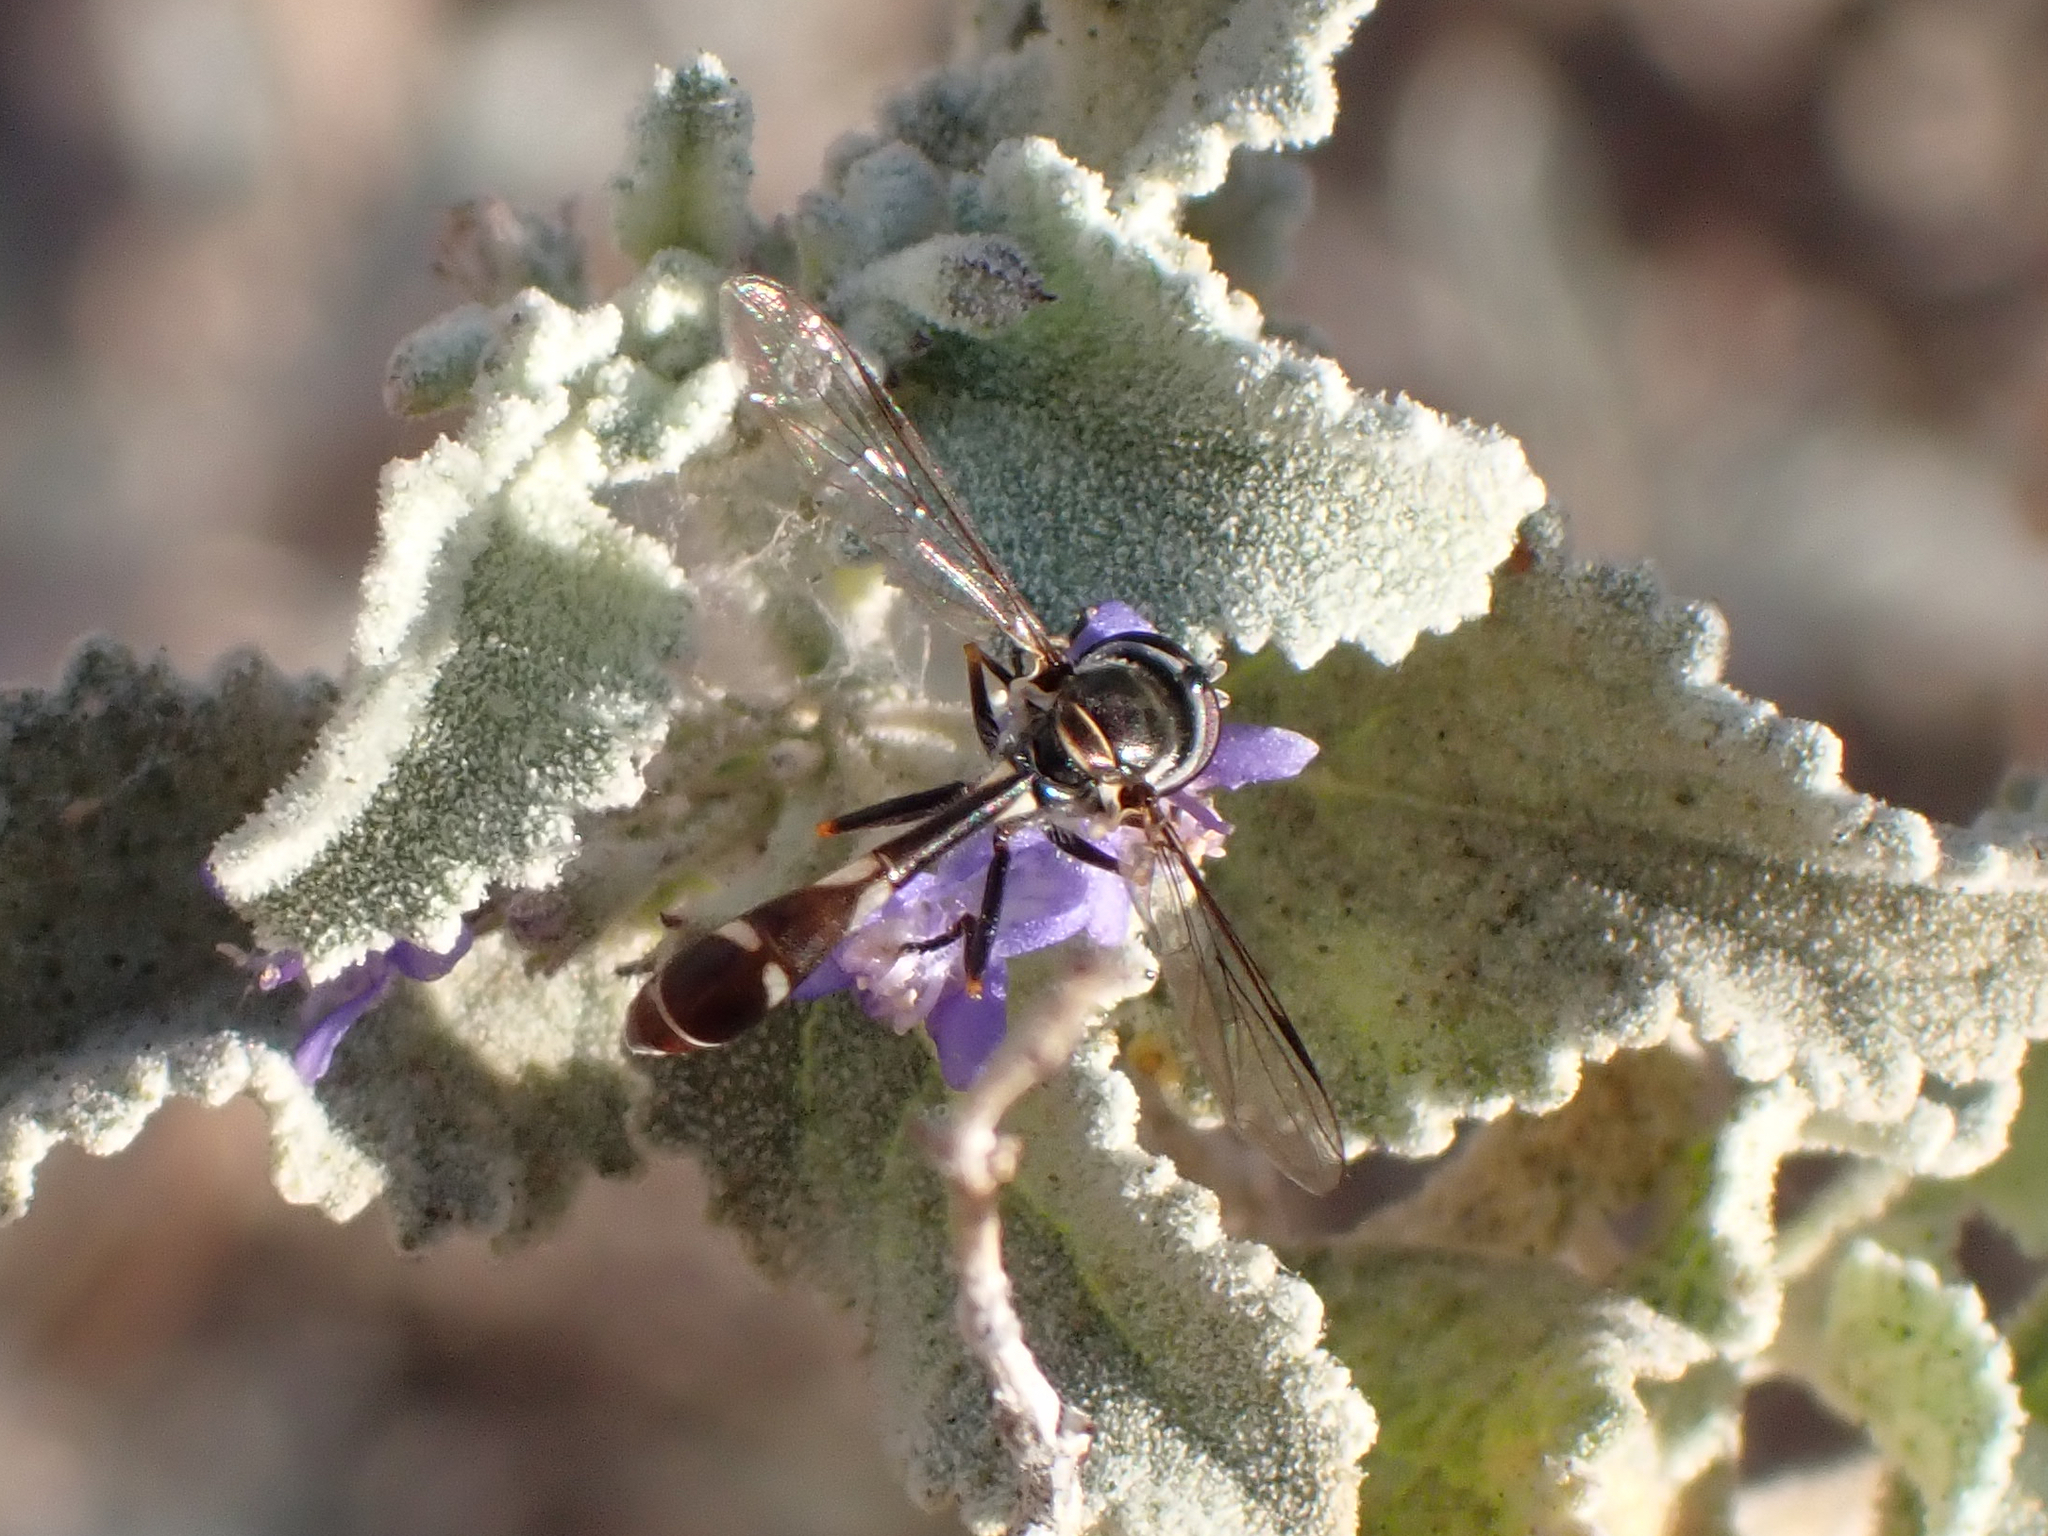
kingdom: Animalia
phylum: Arthropoda
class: Insecta
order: Diptera
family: Syrphidae
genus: Dioprosopa
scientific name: Dioprosopa clavatus
